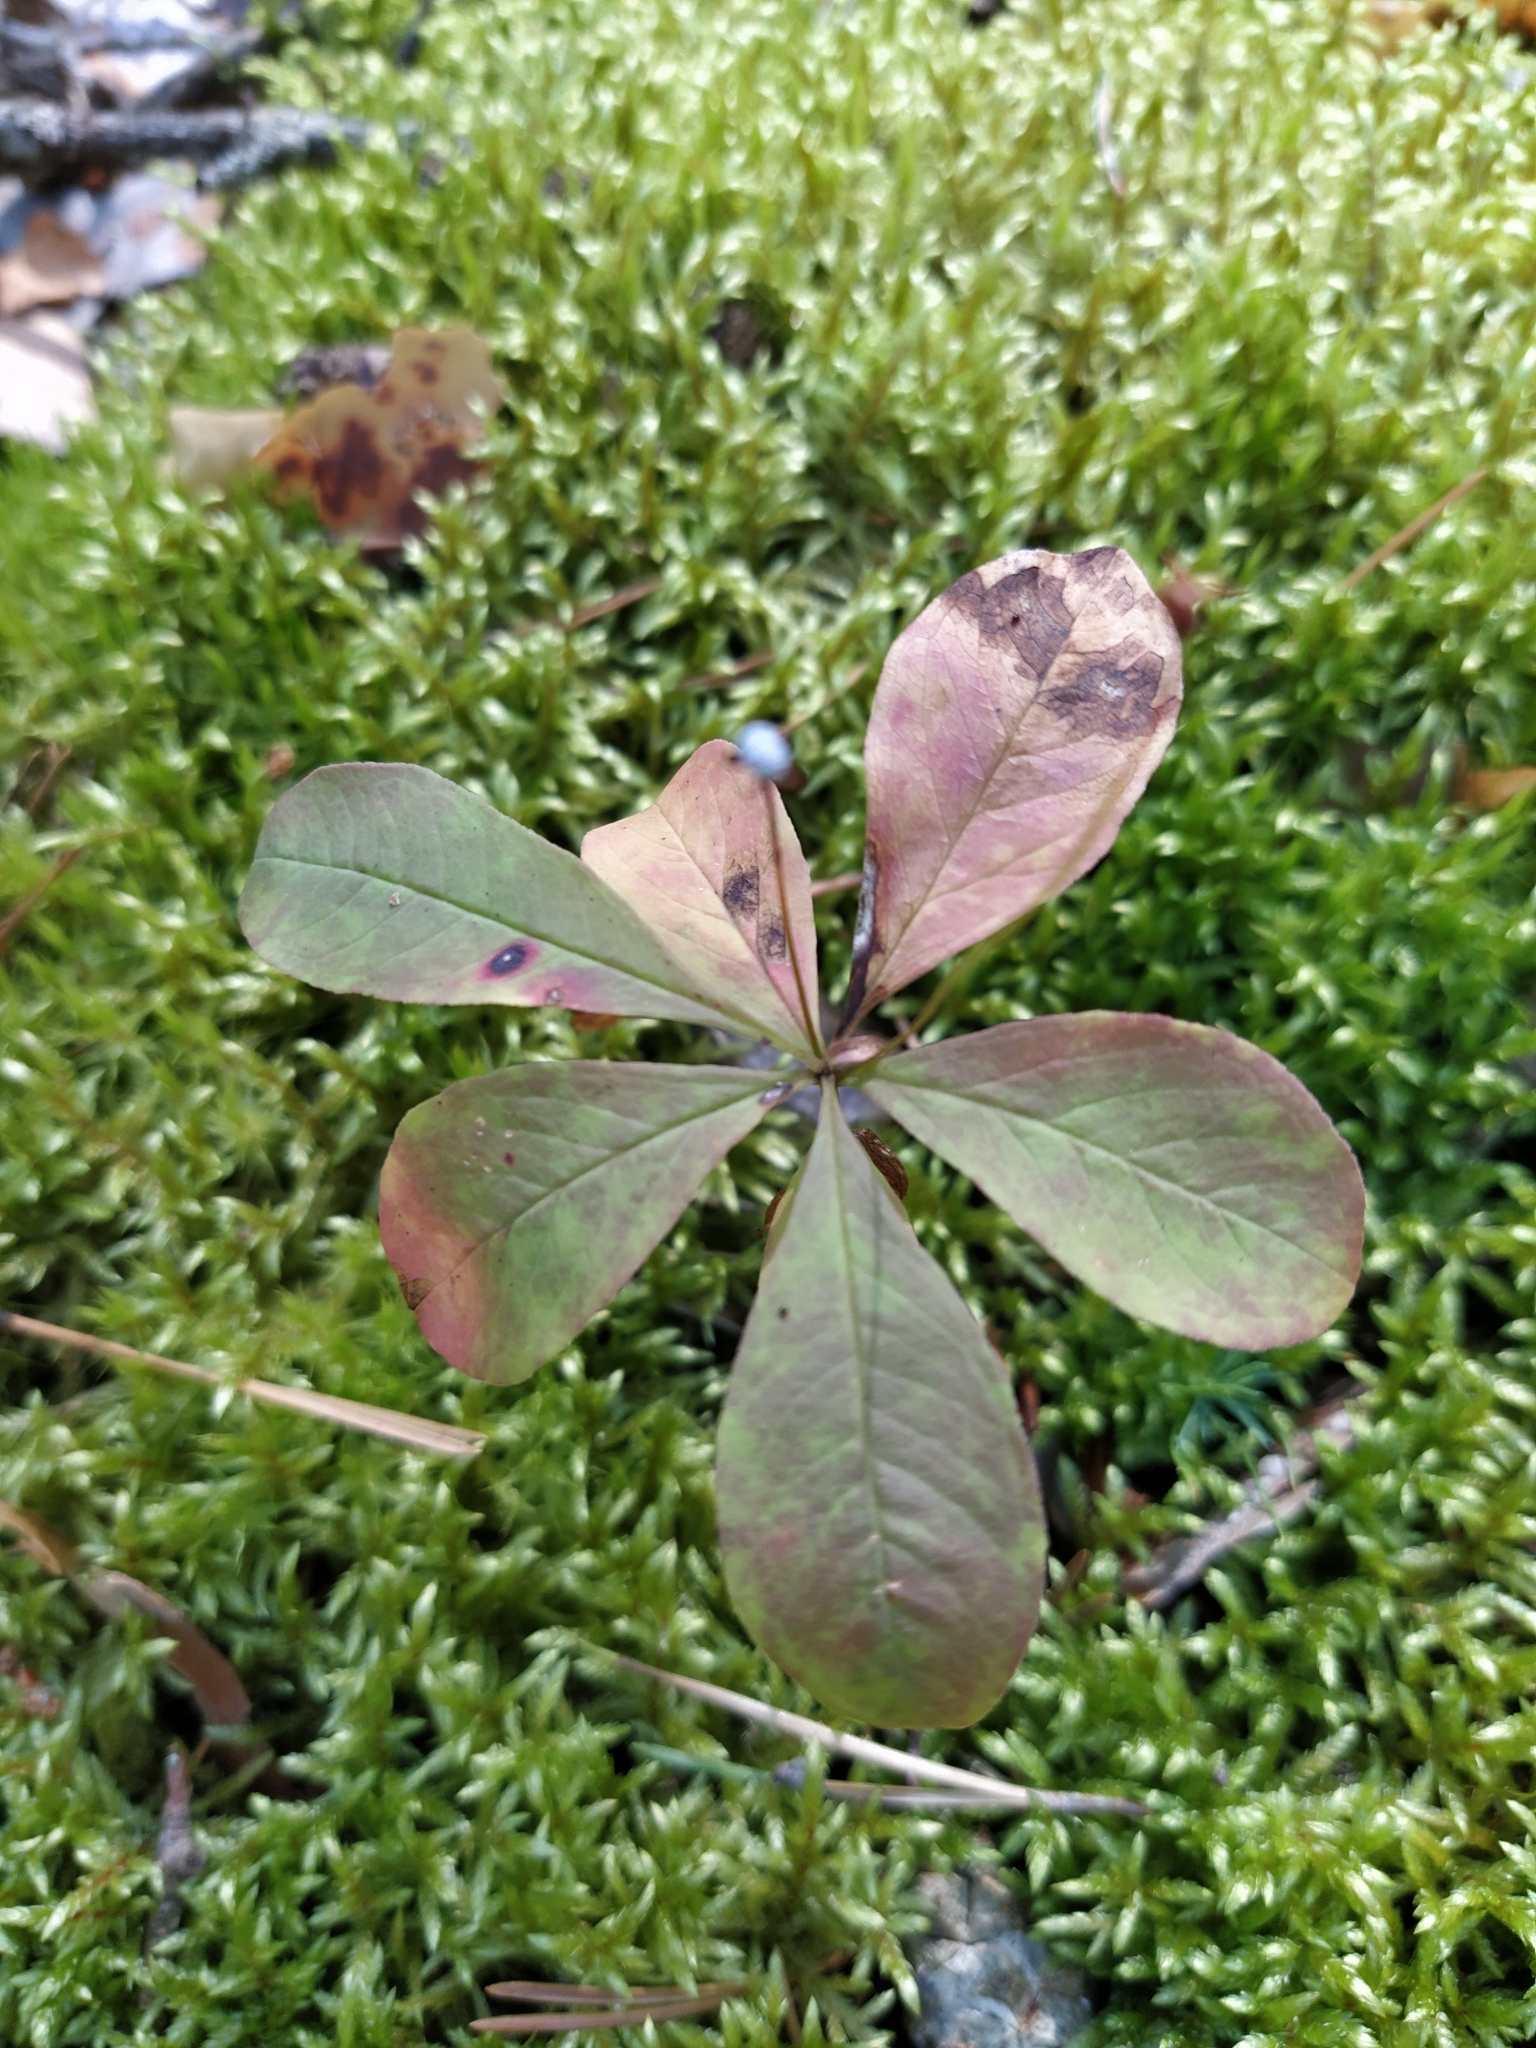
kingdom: Plantae
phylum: Tracheophyta
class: Magnoliopsida
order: Ericales
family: Primulaceae
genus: Lysimachia
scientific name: Lysimachia europaea
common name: Arctic starflower
